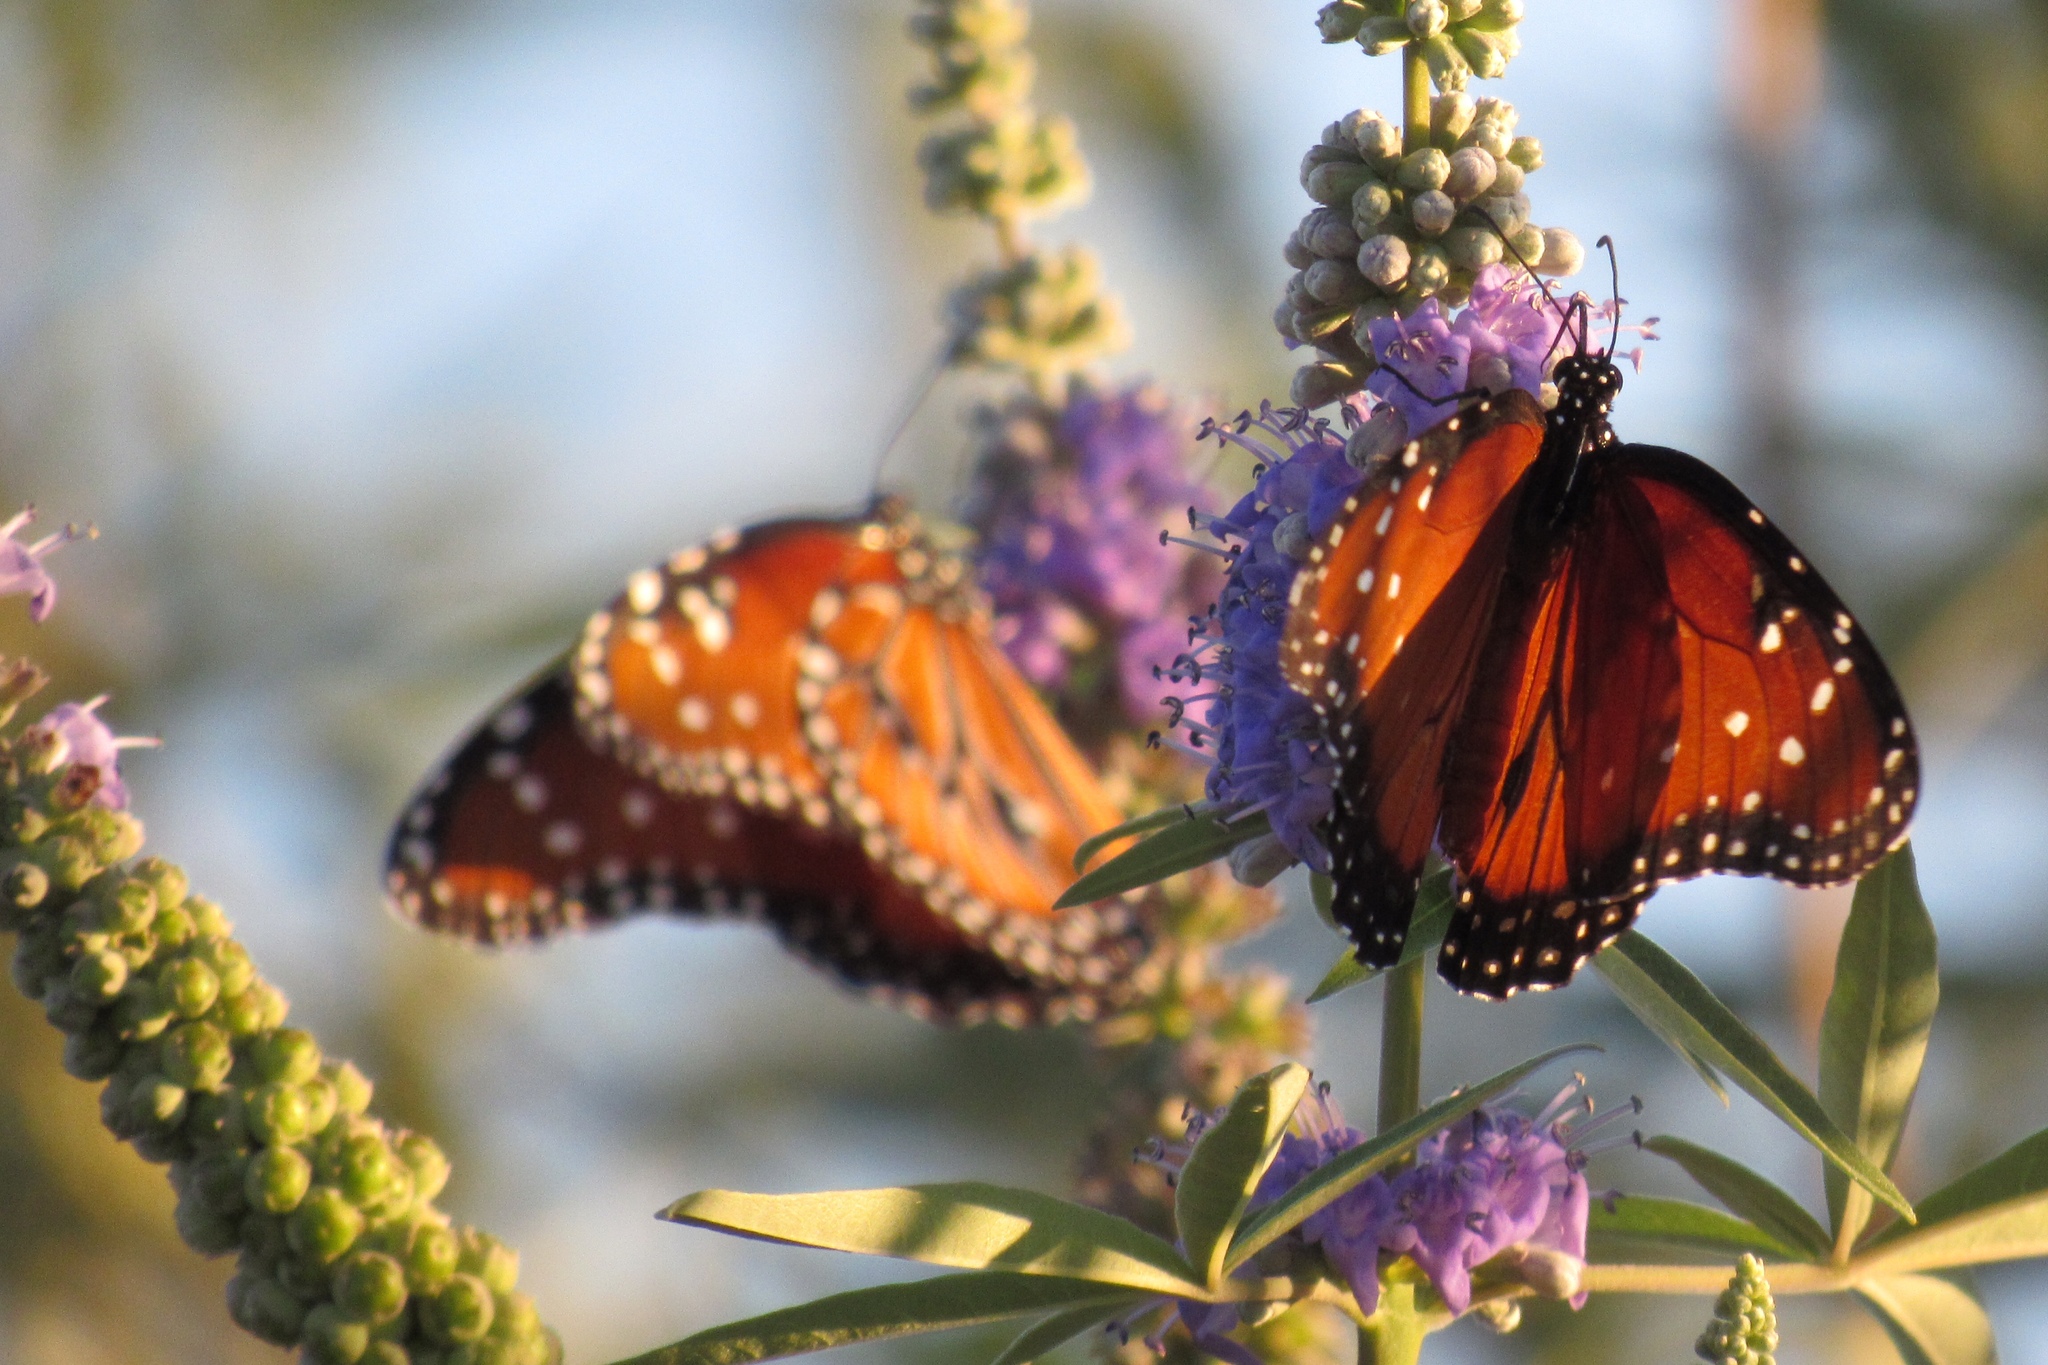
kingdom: Animalia
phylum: Arthropoda
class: Insecta
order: Lepidoptera
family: Nymphalidae
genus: Danaus
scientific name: Danaus gilippus
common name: Queen
